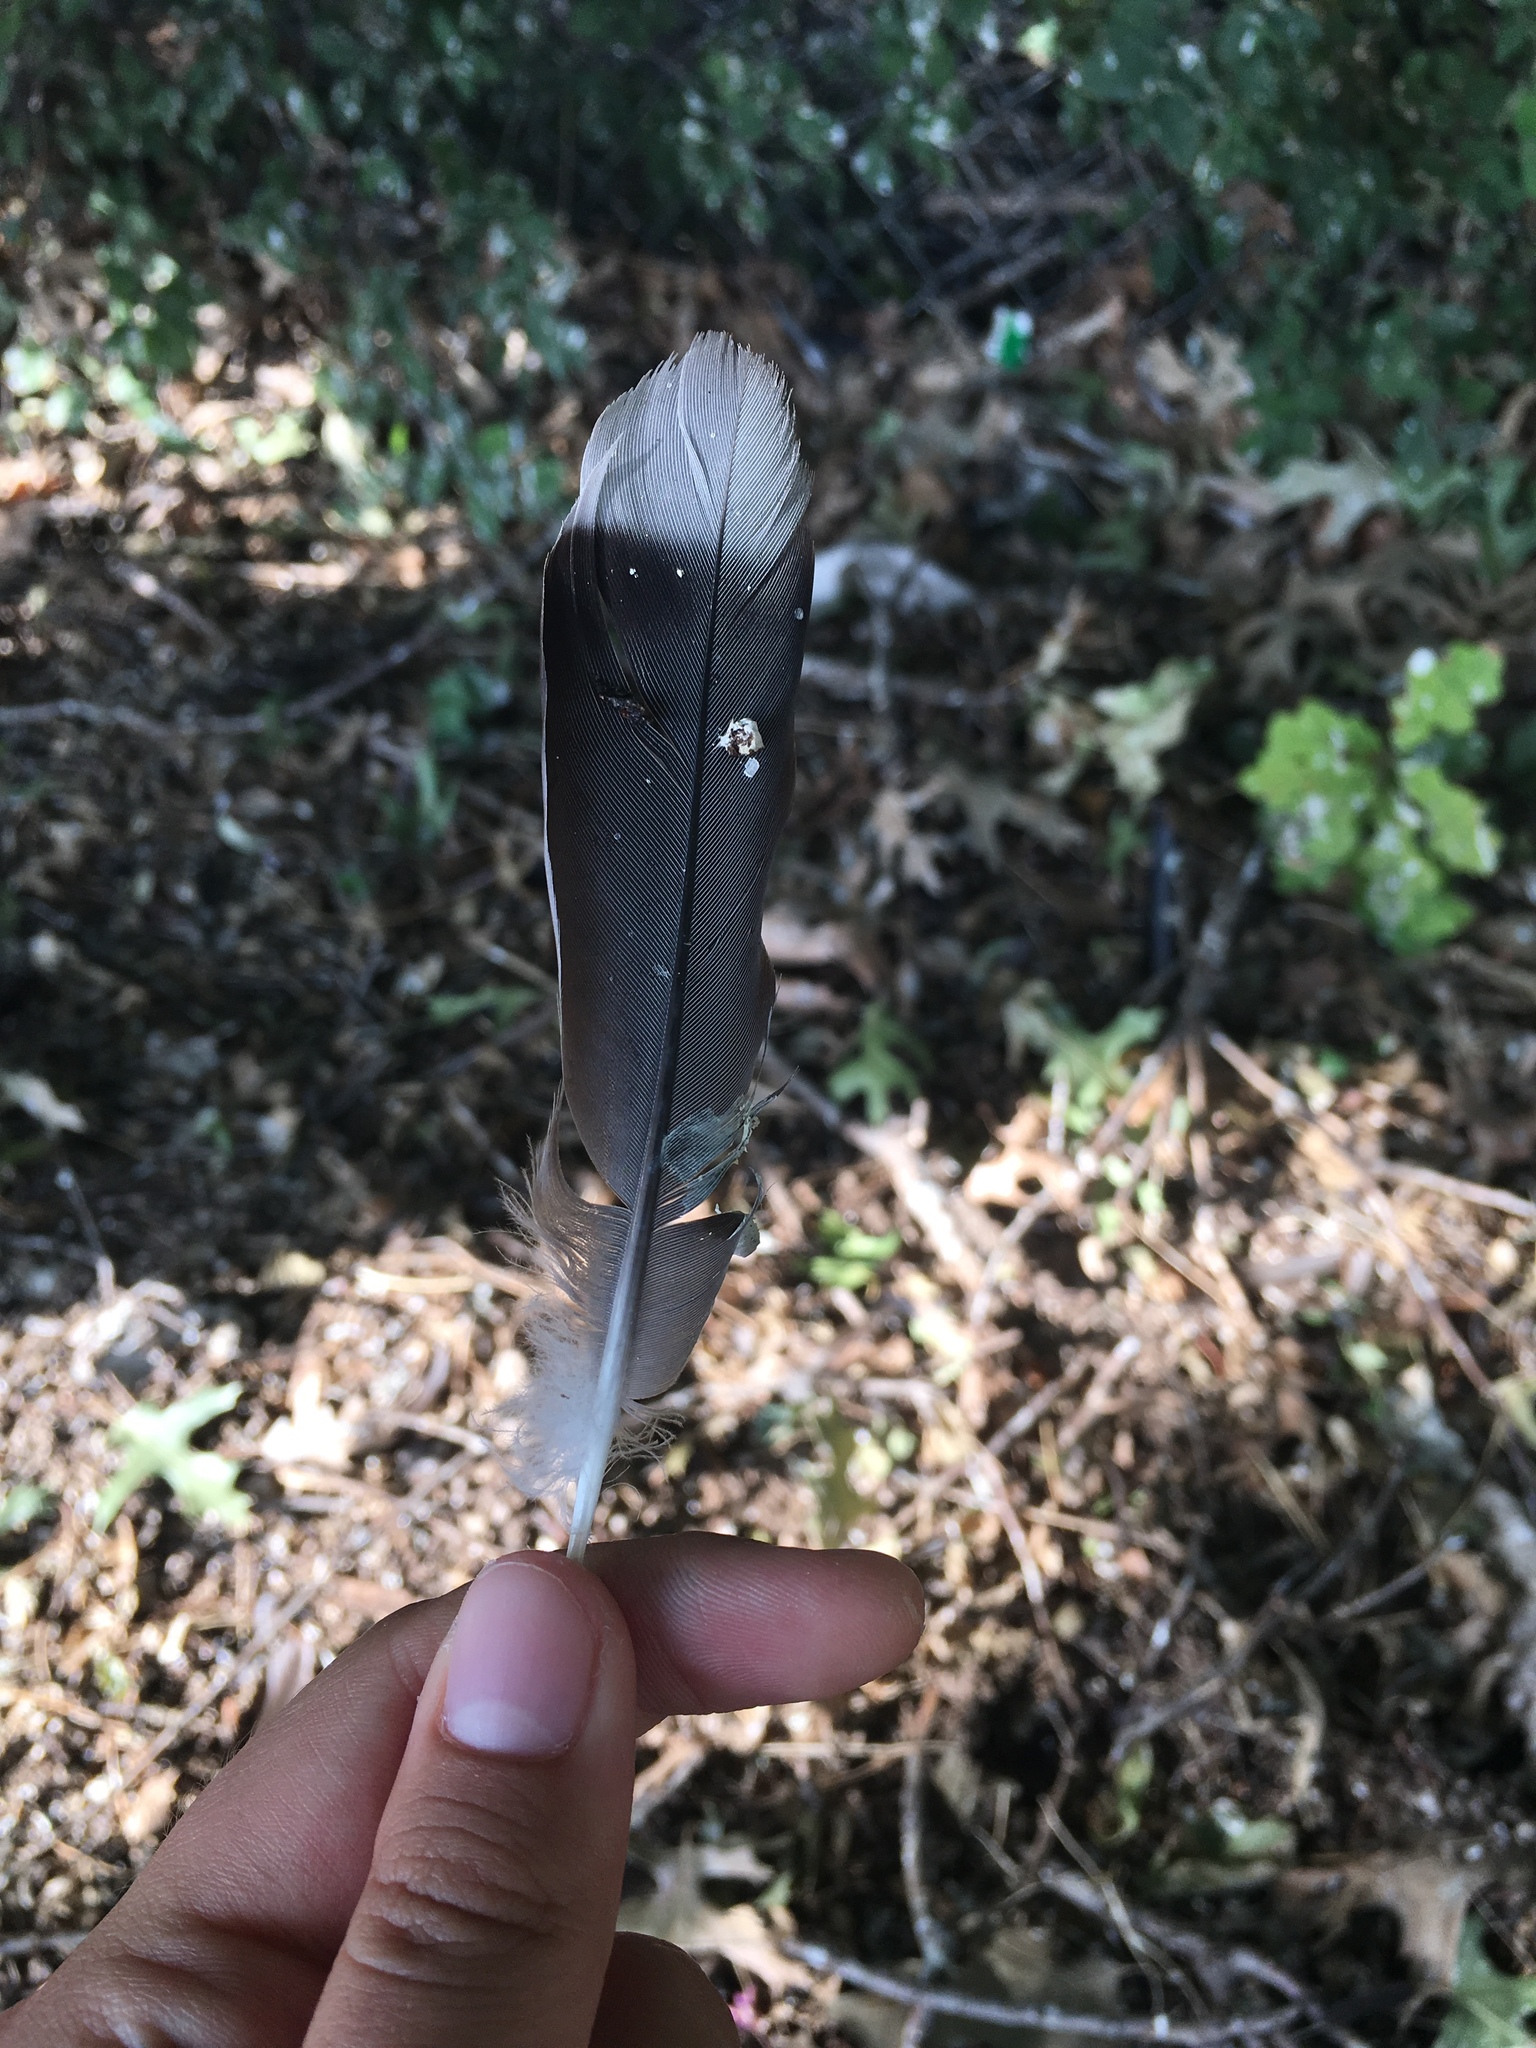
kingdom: Animalia
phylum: Chordata
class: Aves
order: Columbiformes
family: Columbidae
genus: Zenaida
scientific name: Zenaida asiatica
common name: White-winged dove
